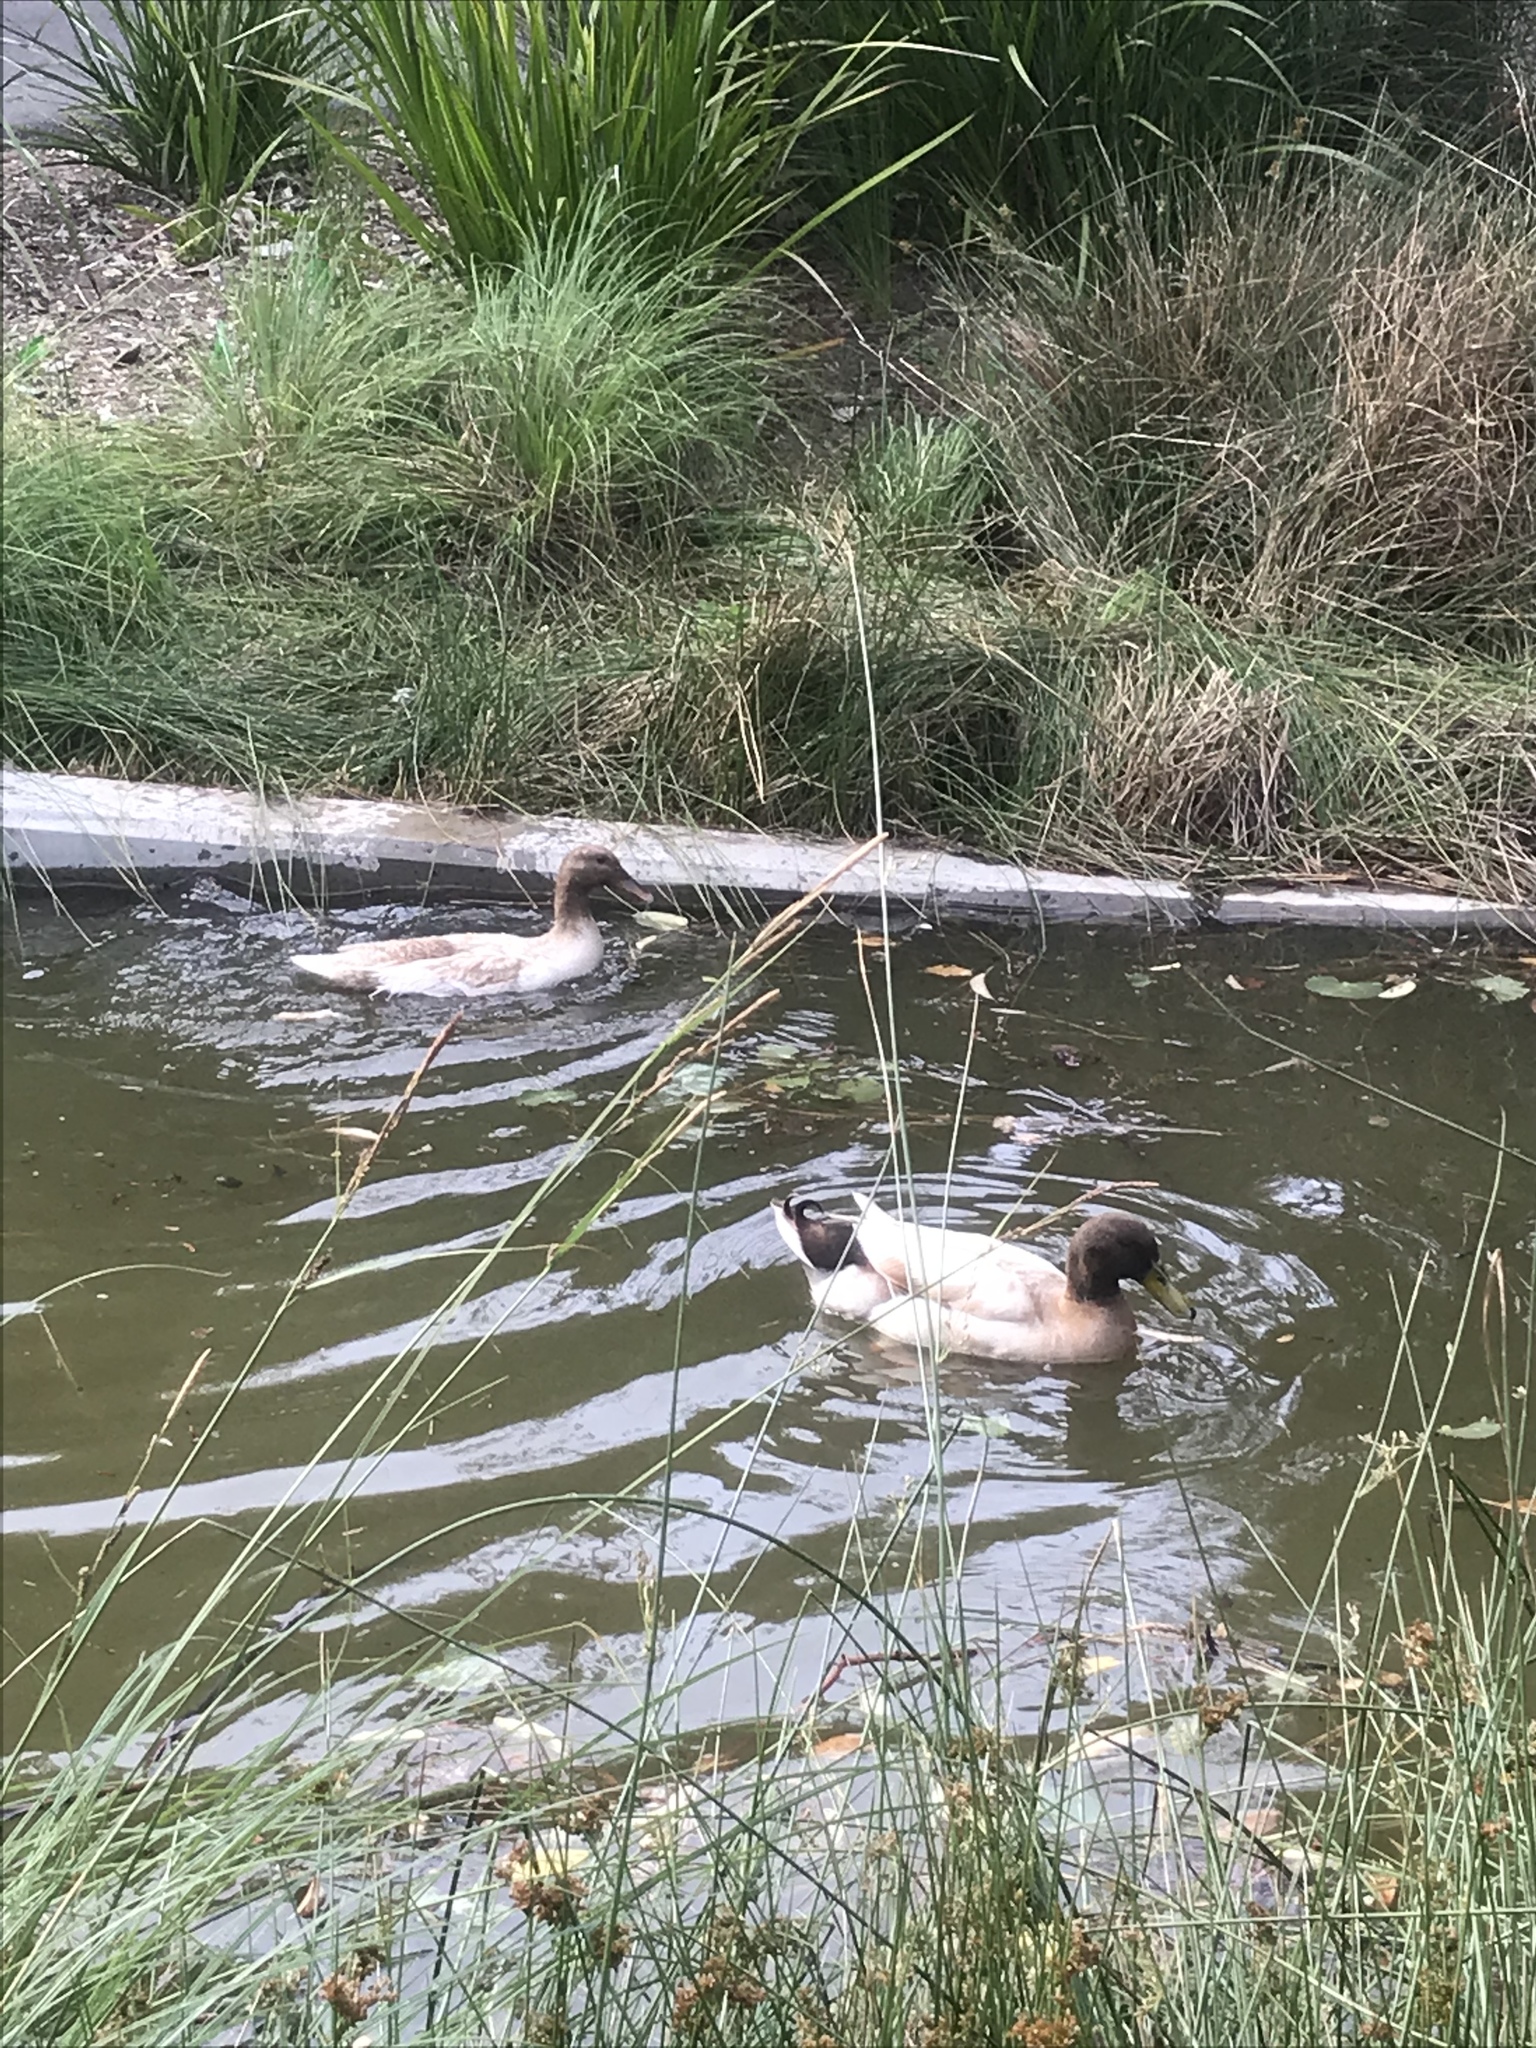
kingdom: Animalia
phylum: Chordata
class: Aves
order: Anseriformes
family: Anatidae
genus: Anas
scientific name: Anas platyrhynchos
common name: Mallard
